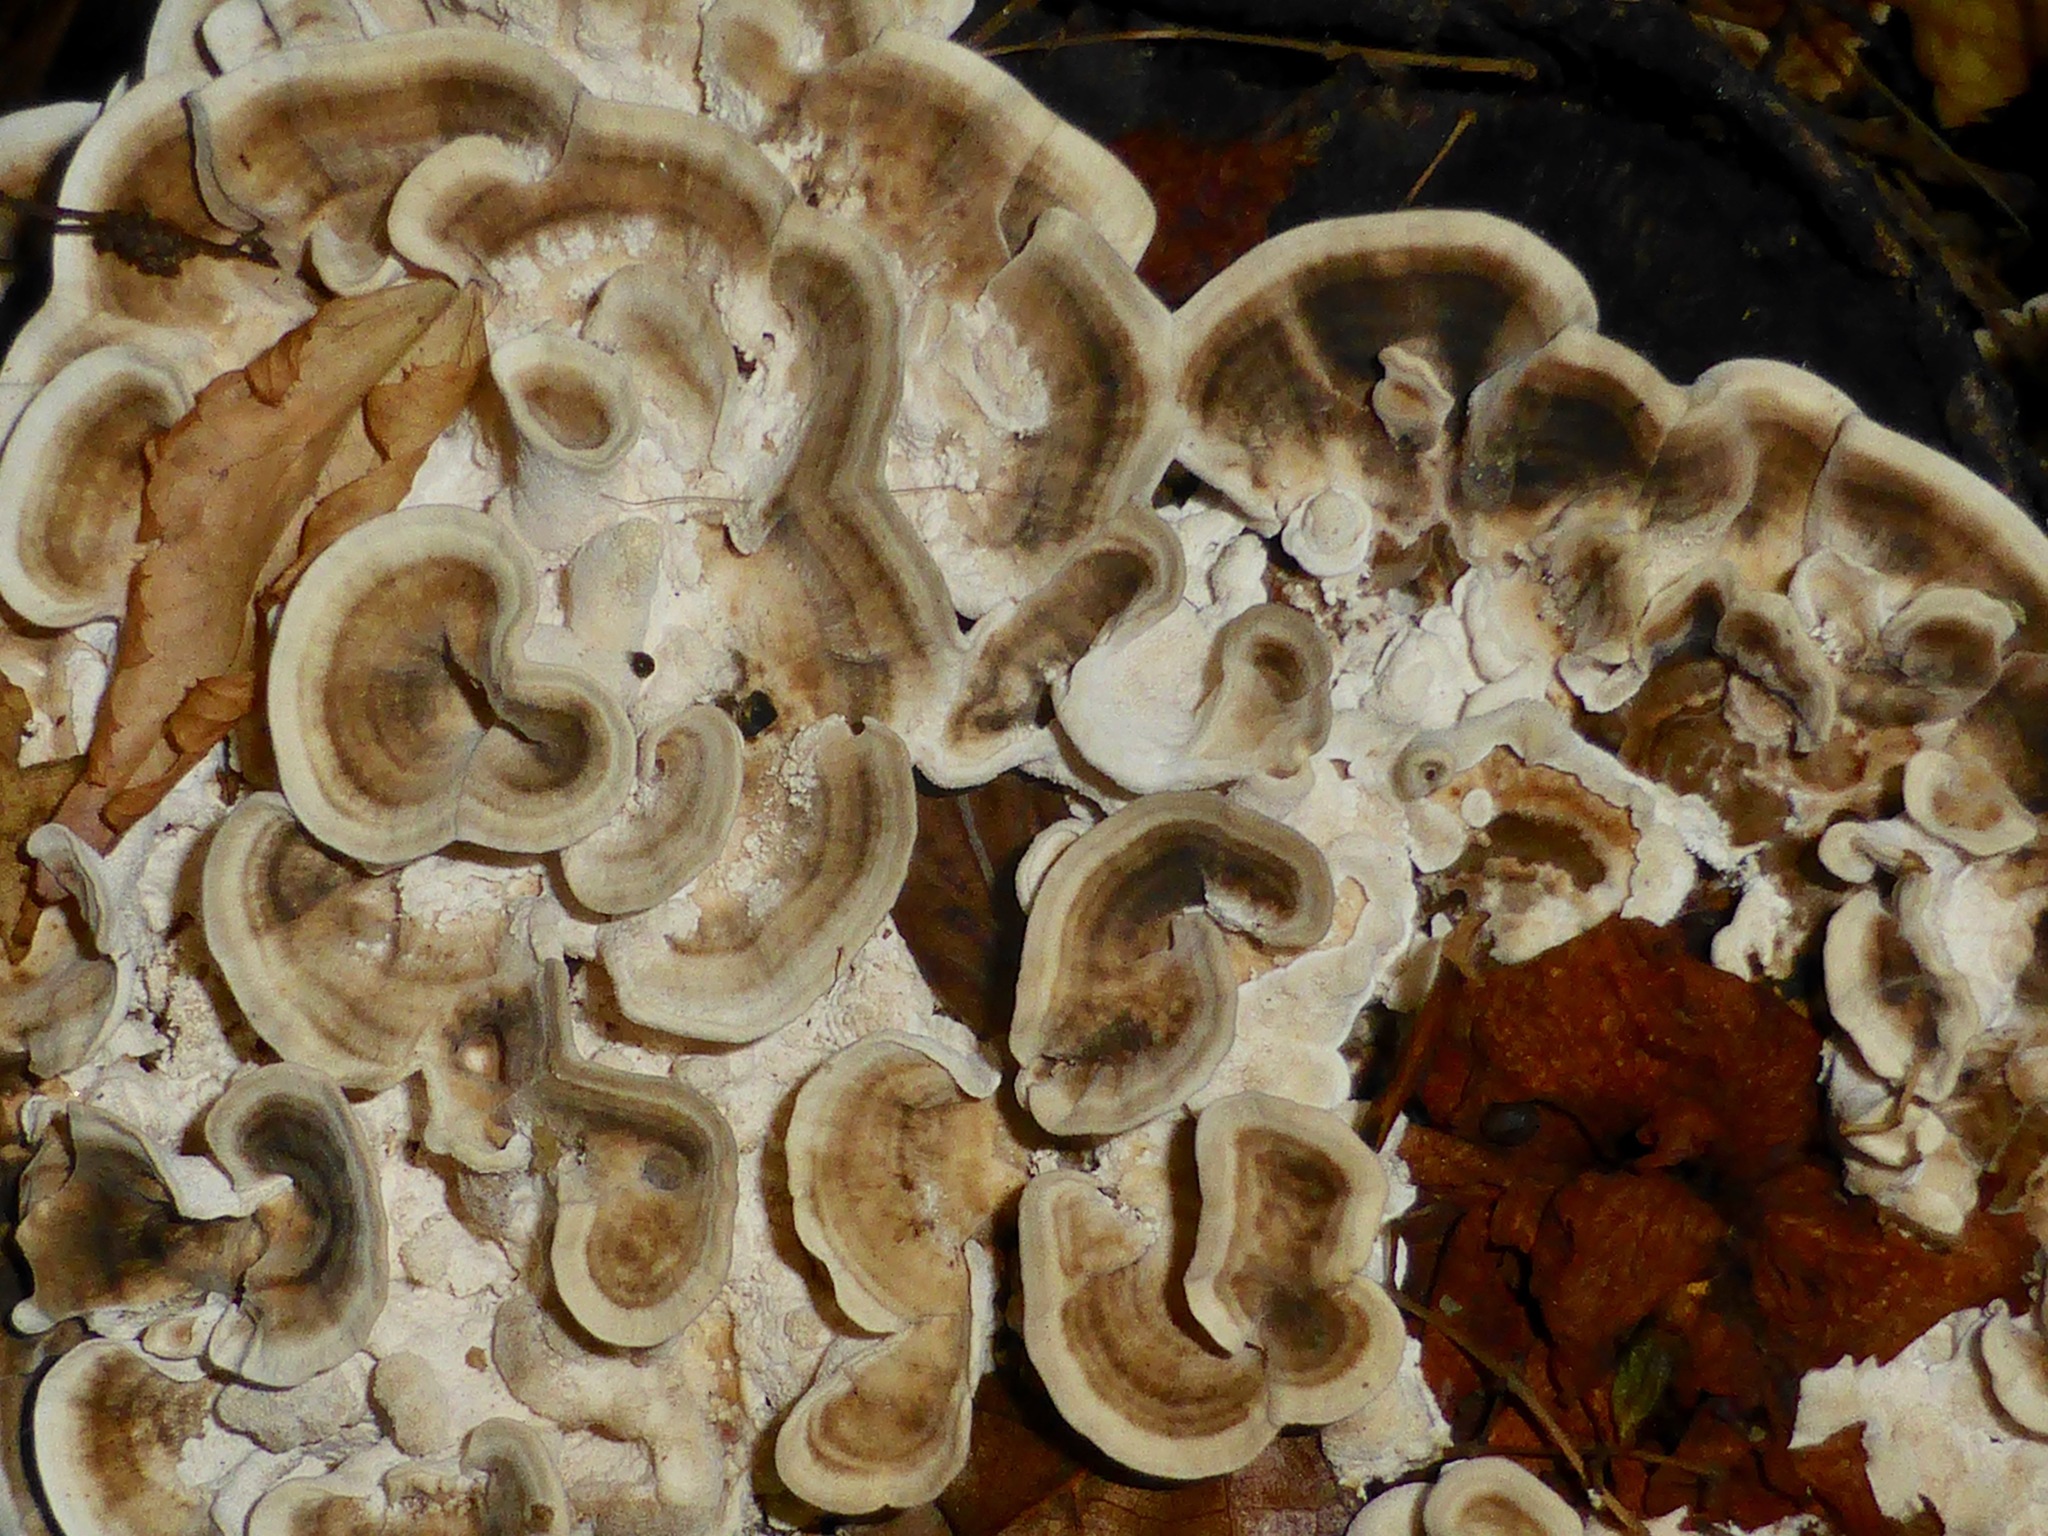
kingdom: Fungi
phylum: Basidiomycota
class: Agaricomycetes
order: Polyporales
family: Polyporaceae
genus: Trametes
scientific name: Trametes versicolor
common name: Turkeytail
